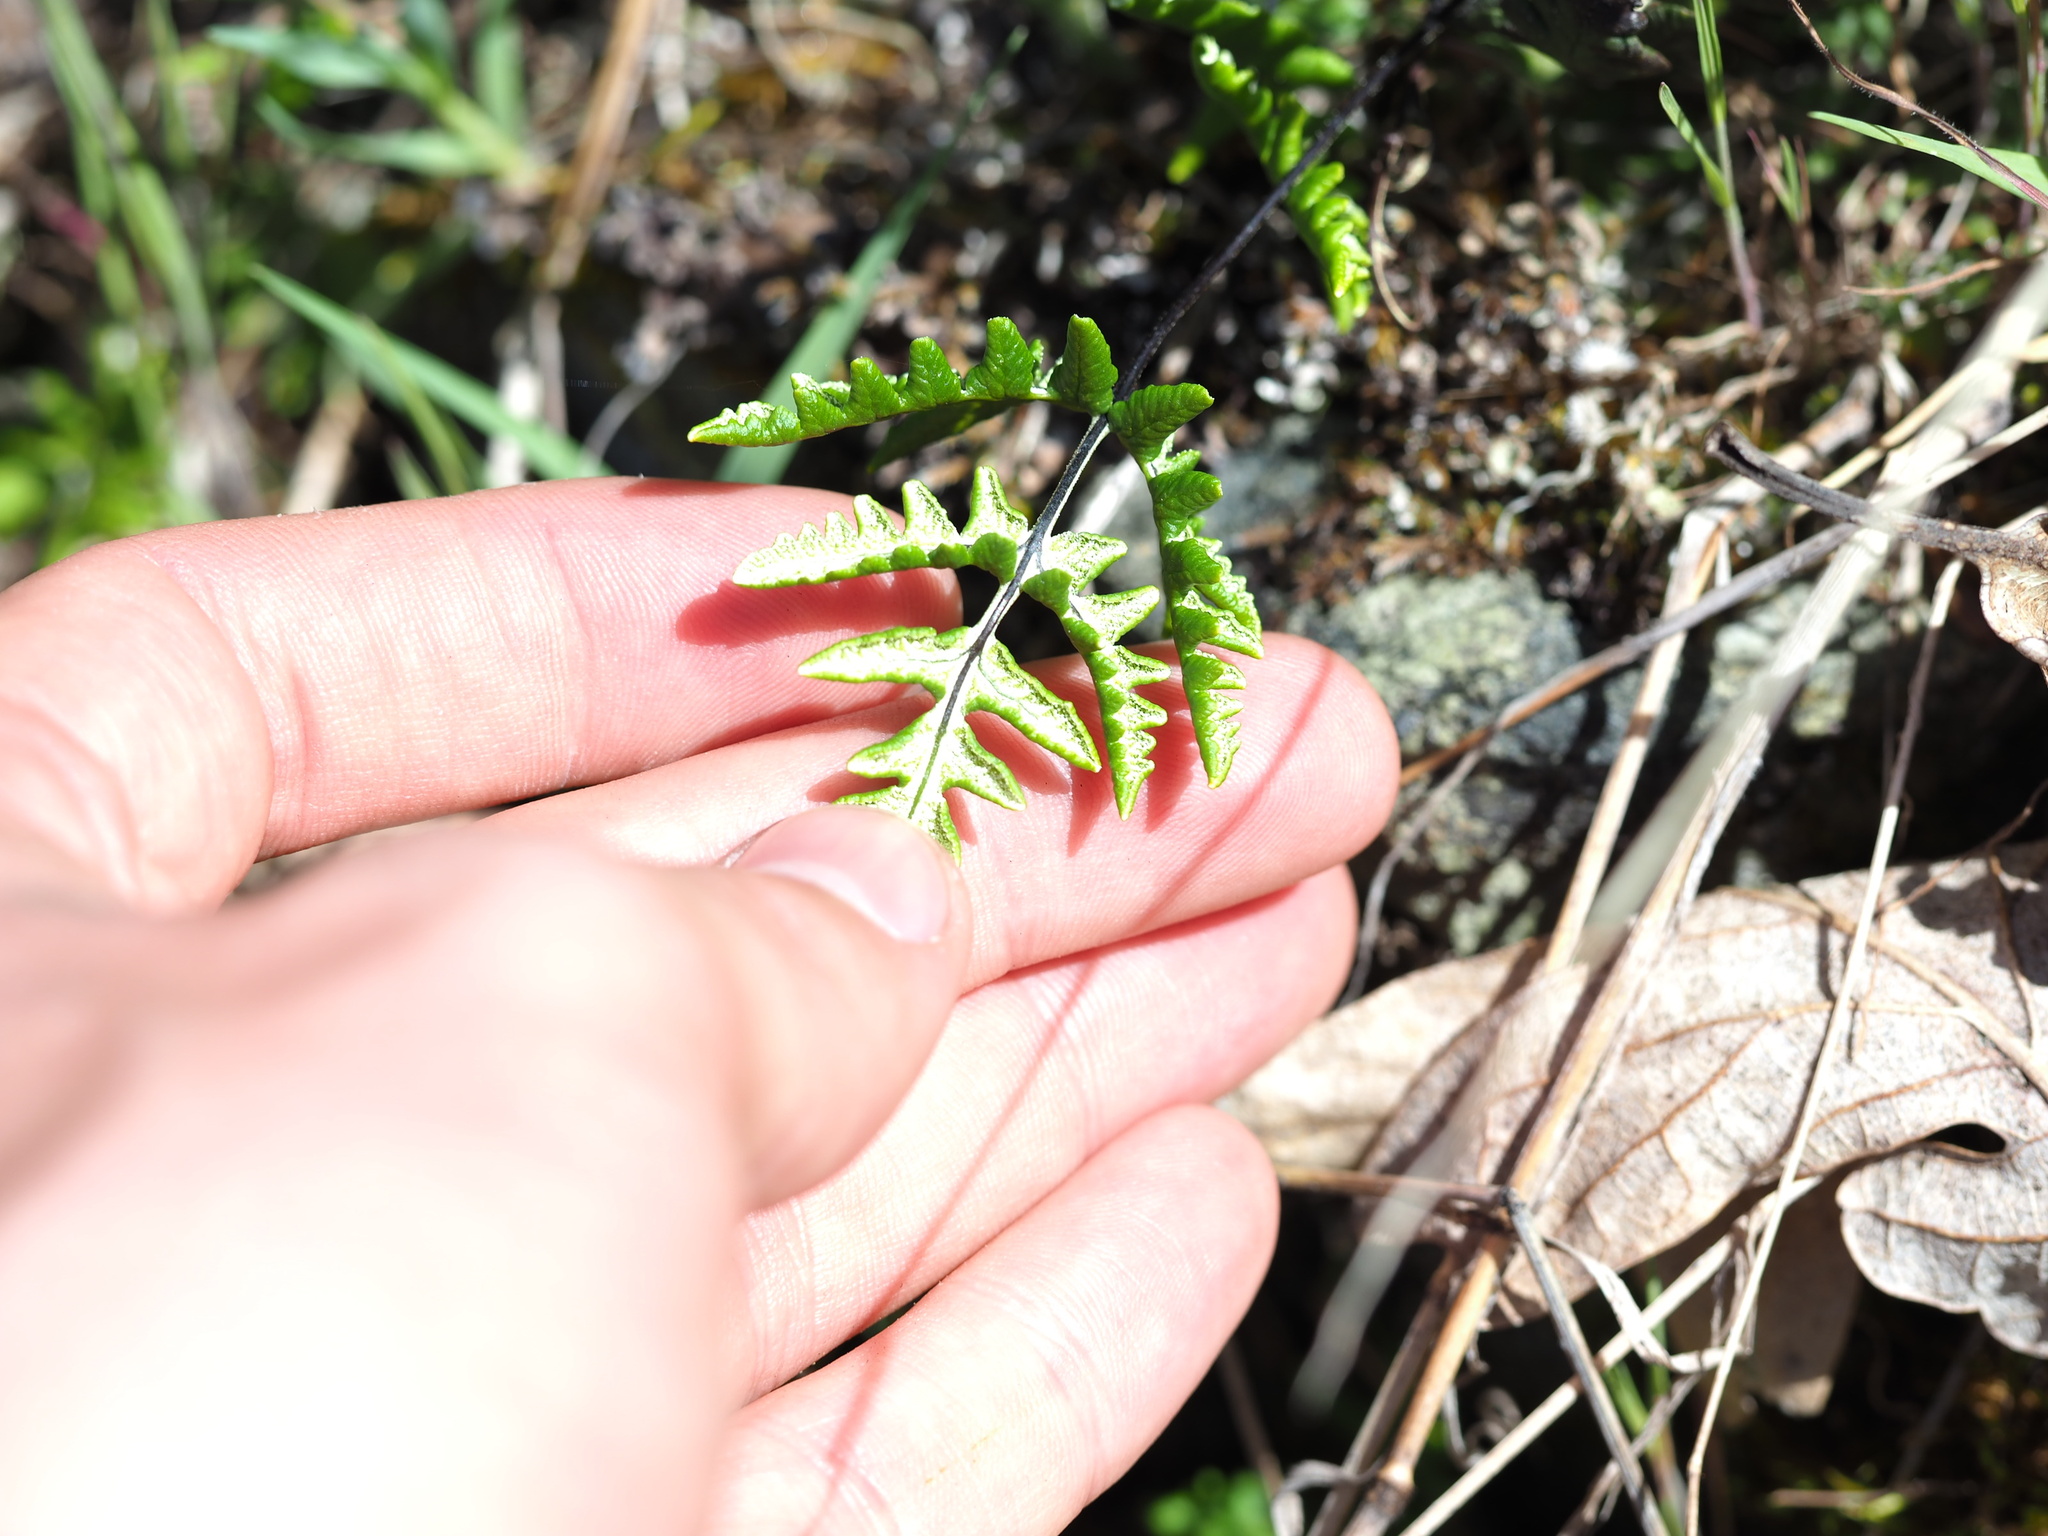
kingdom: Plantae
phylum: Tracheophyta
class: Polypodiopsida
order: Polypodiales
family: Pteridaceae
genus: Pentagramma
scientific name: Pentagramma triangularis
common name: Gold fern
